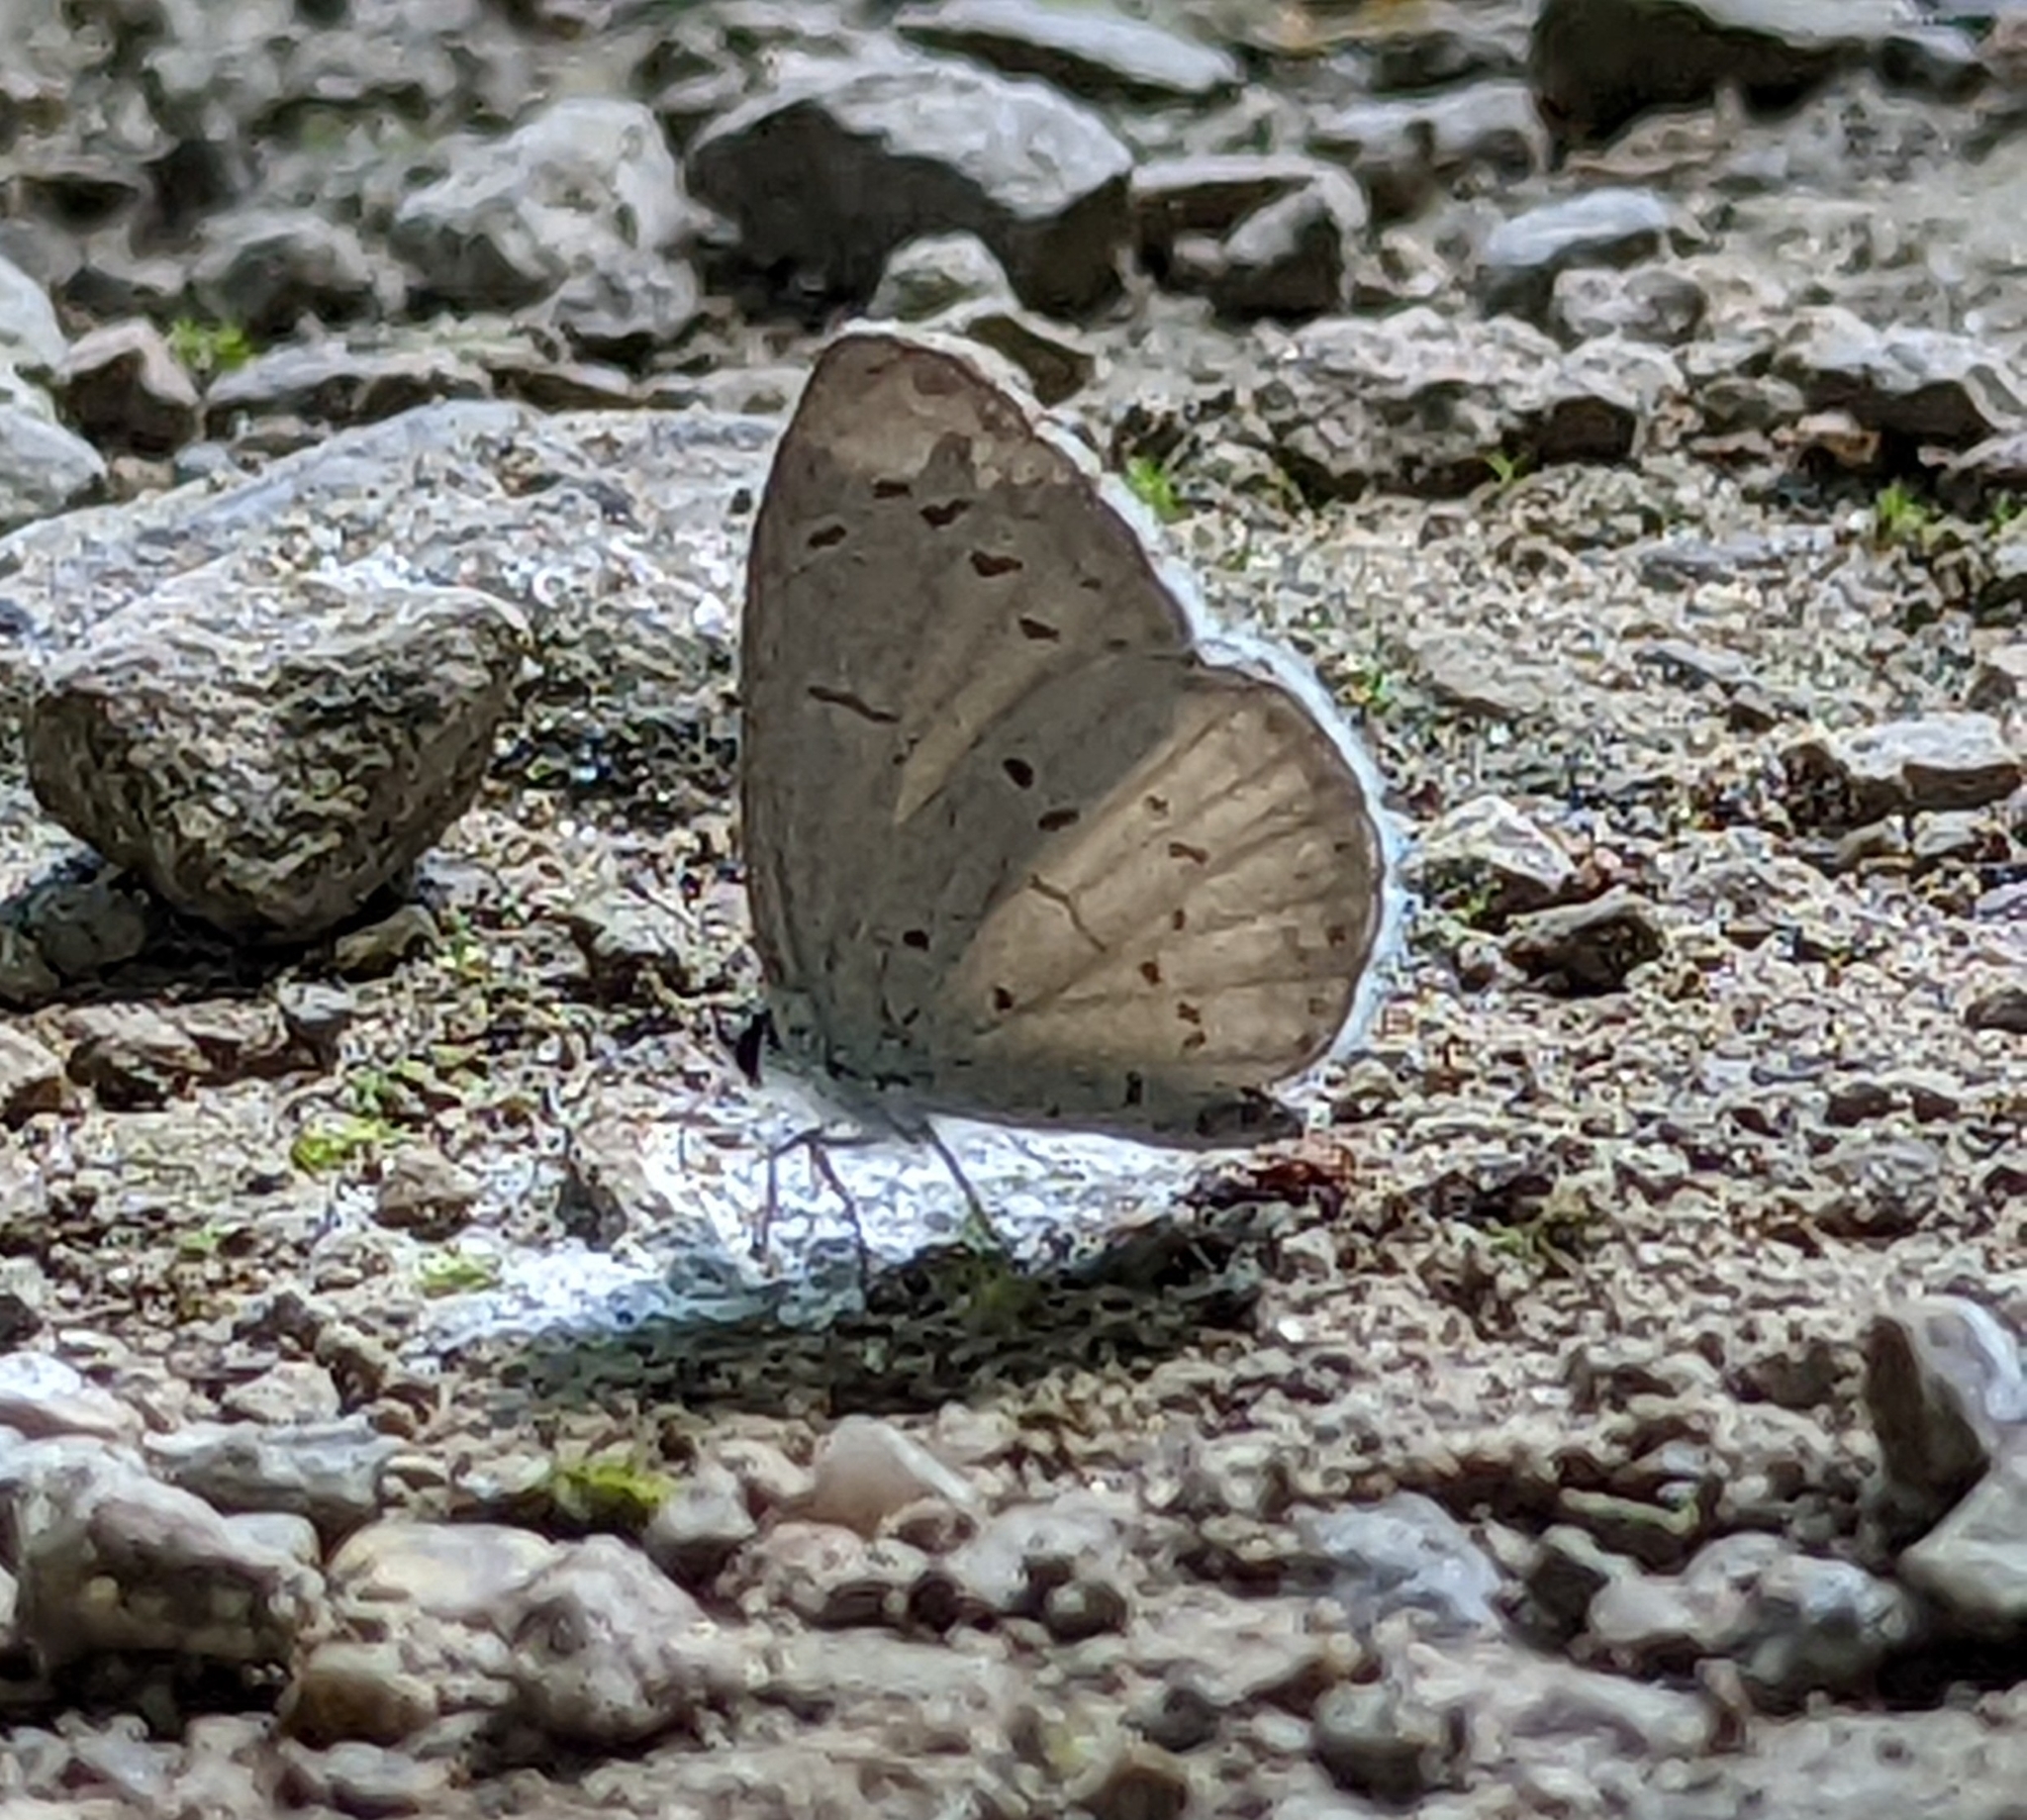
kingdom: Animalia
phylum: Arthropoda
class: Insecta
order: Lepidoptera
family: Lycaenidae
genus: Cyaniris
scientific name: Cyaniris neglecta
